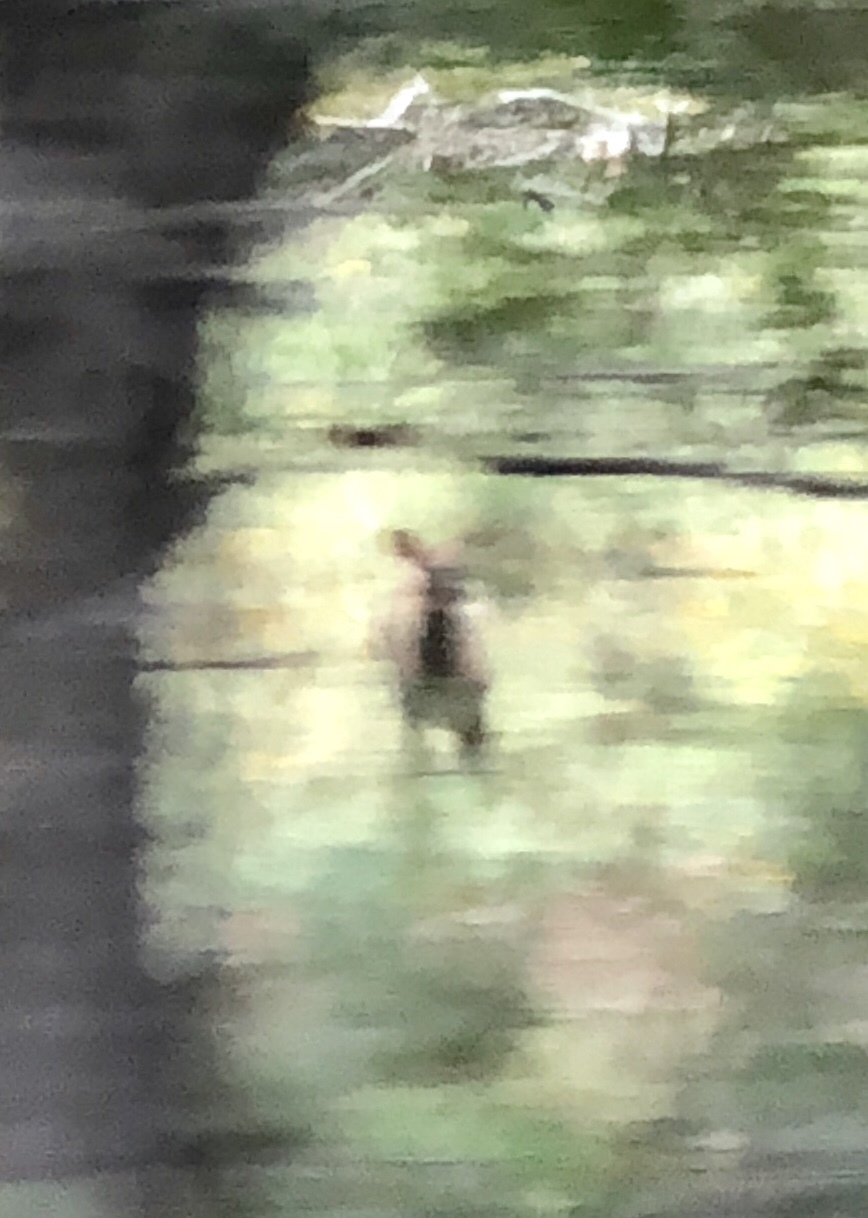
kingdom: Animalia
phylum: Chordata
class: Mammalia
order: Artiodactyla
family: Cervidae
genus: Cervus
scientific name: Cervus elaphus
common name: Red deer
